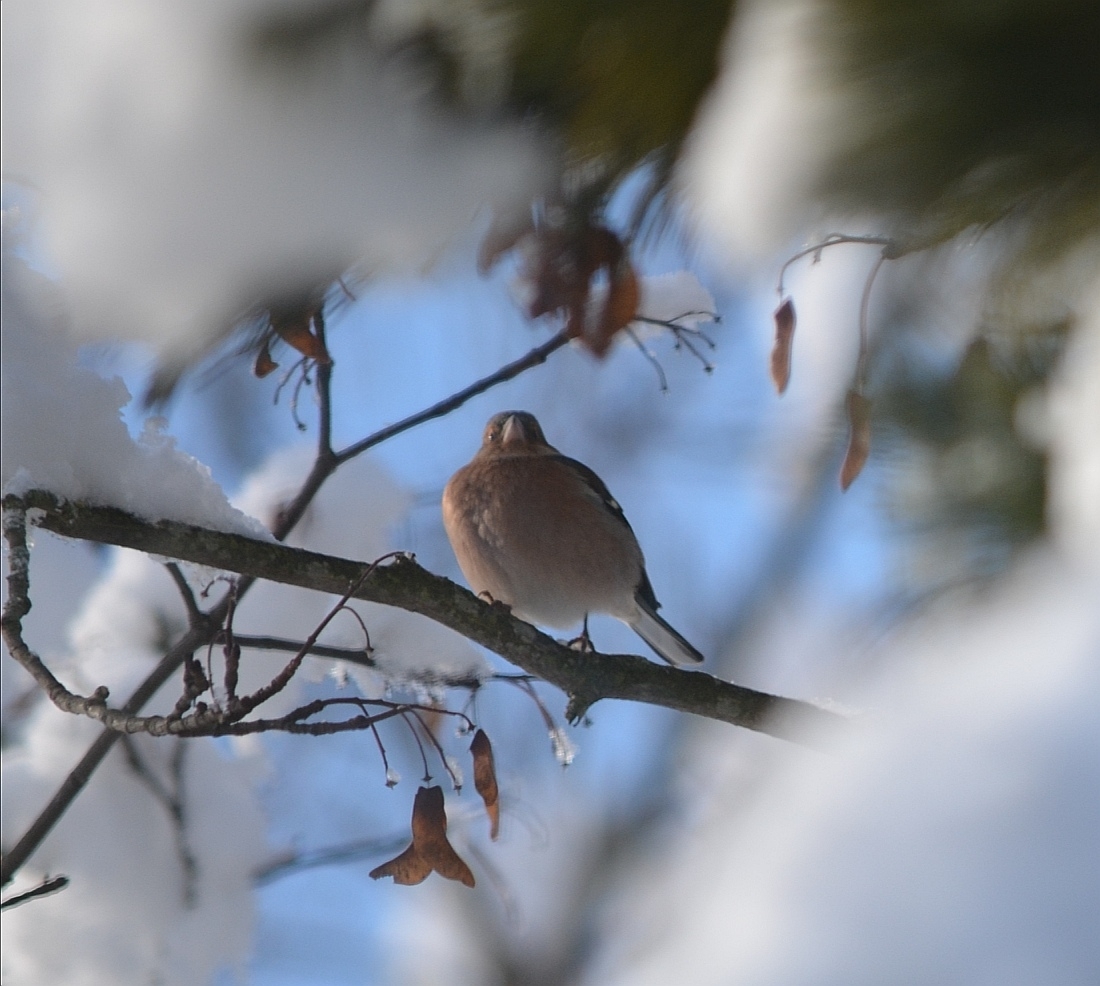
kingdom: Animalia
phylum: Chordata
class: Aves
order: Passeriformes
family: Fringillidae
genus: Fringilla
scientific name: Fringilla coelebs
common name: Common chaffinch
